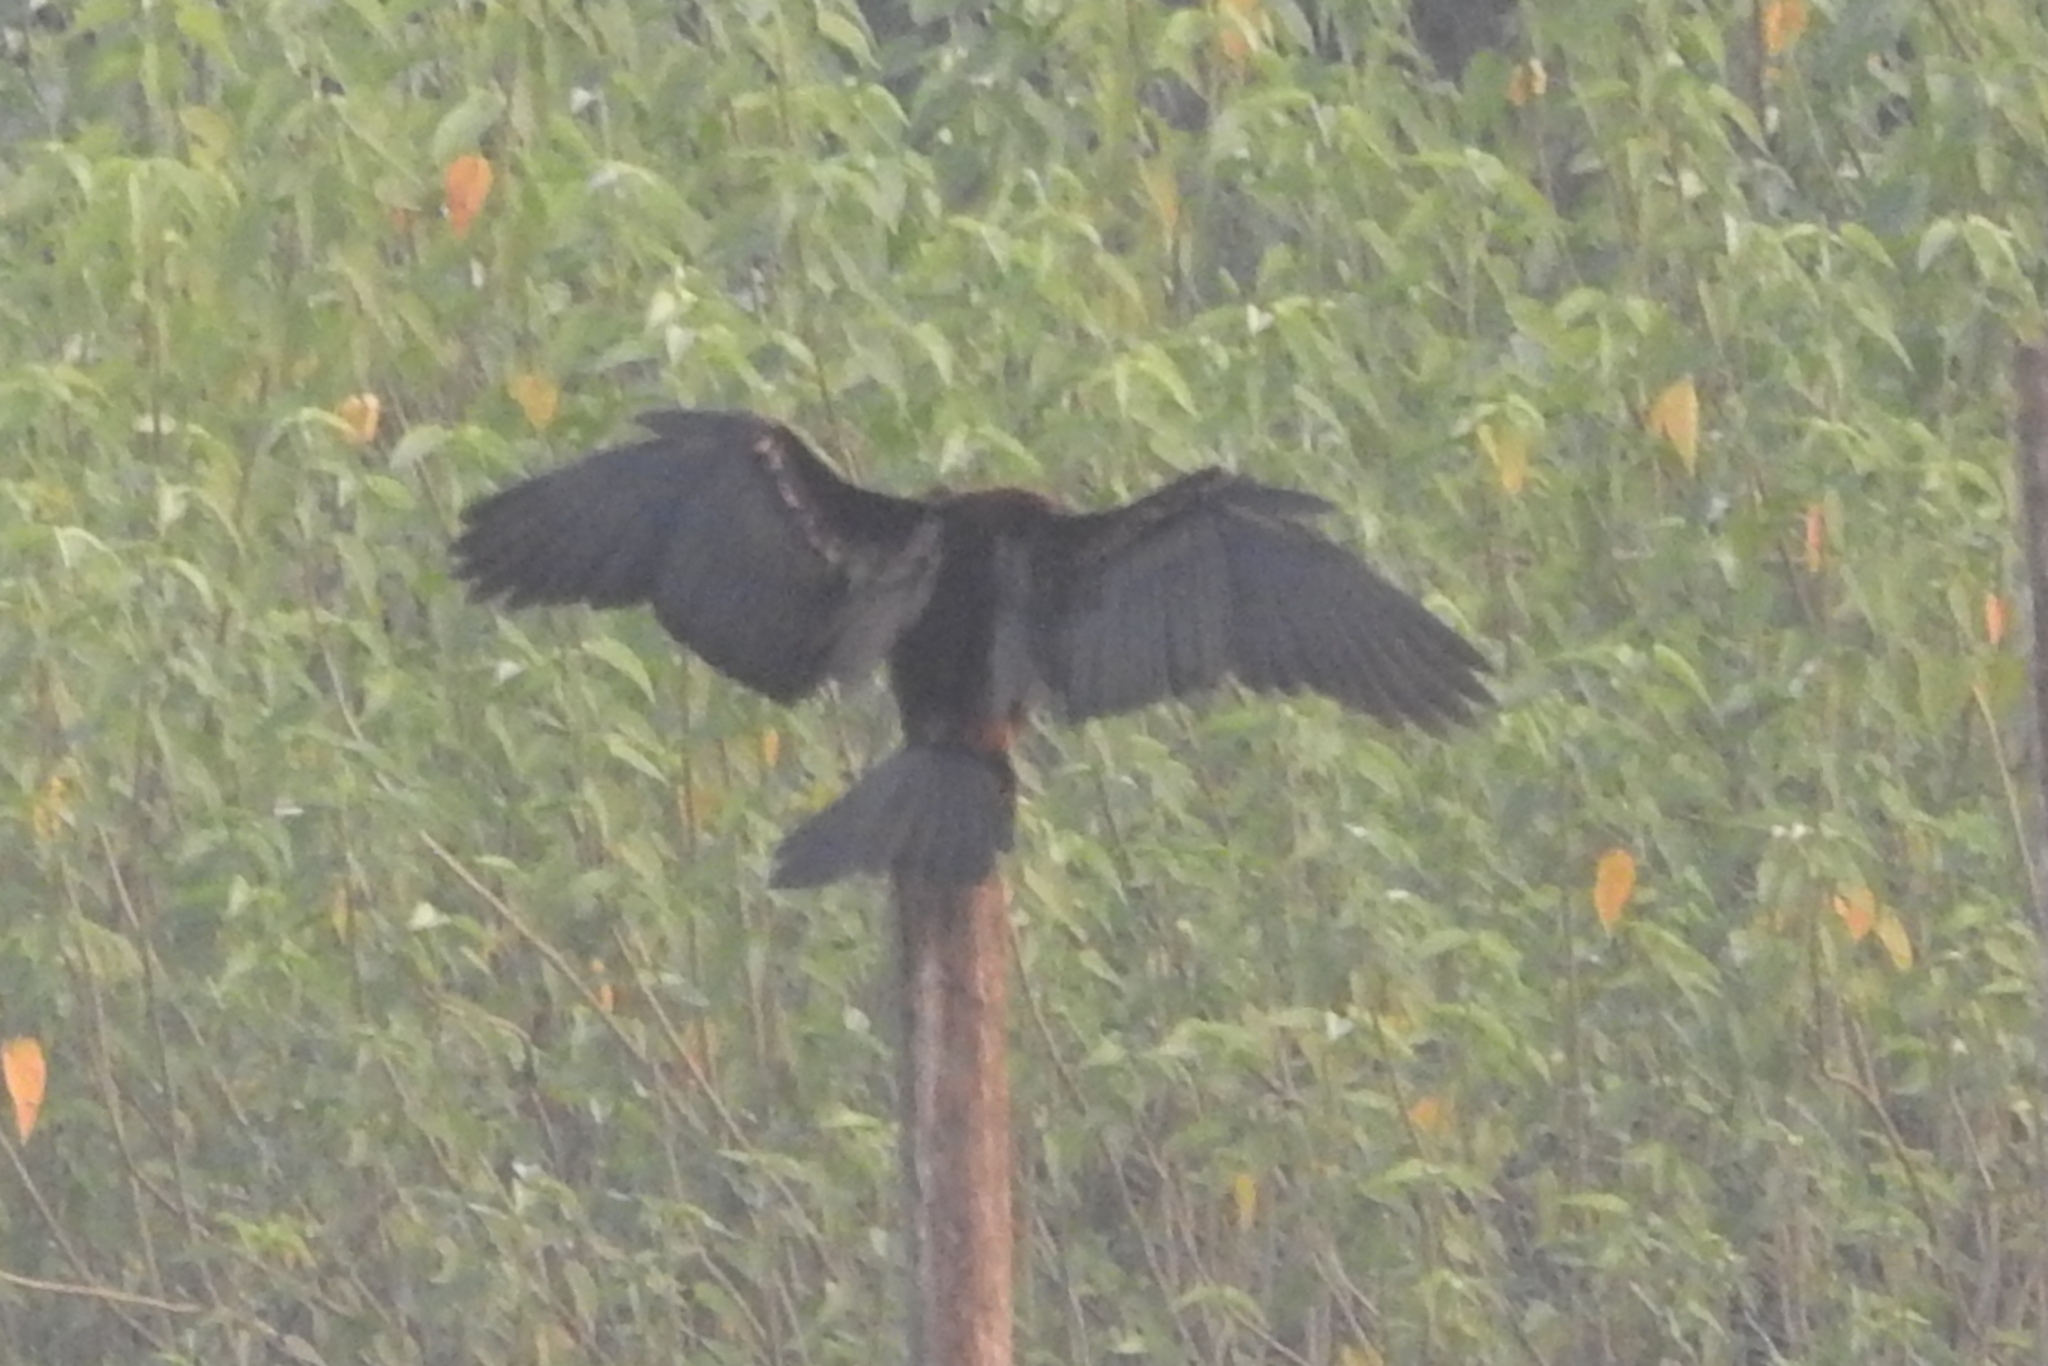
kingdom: Animalia
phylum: Chordata
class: Aves
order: Suliformes
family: Anhingidae
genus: Anhinga
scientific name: Anhinga melanogaster
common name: Oriental darter
